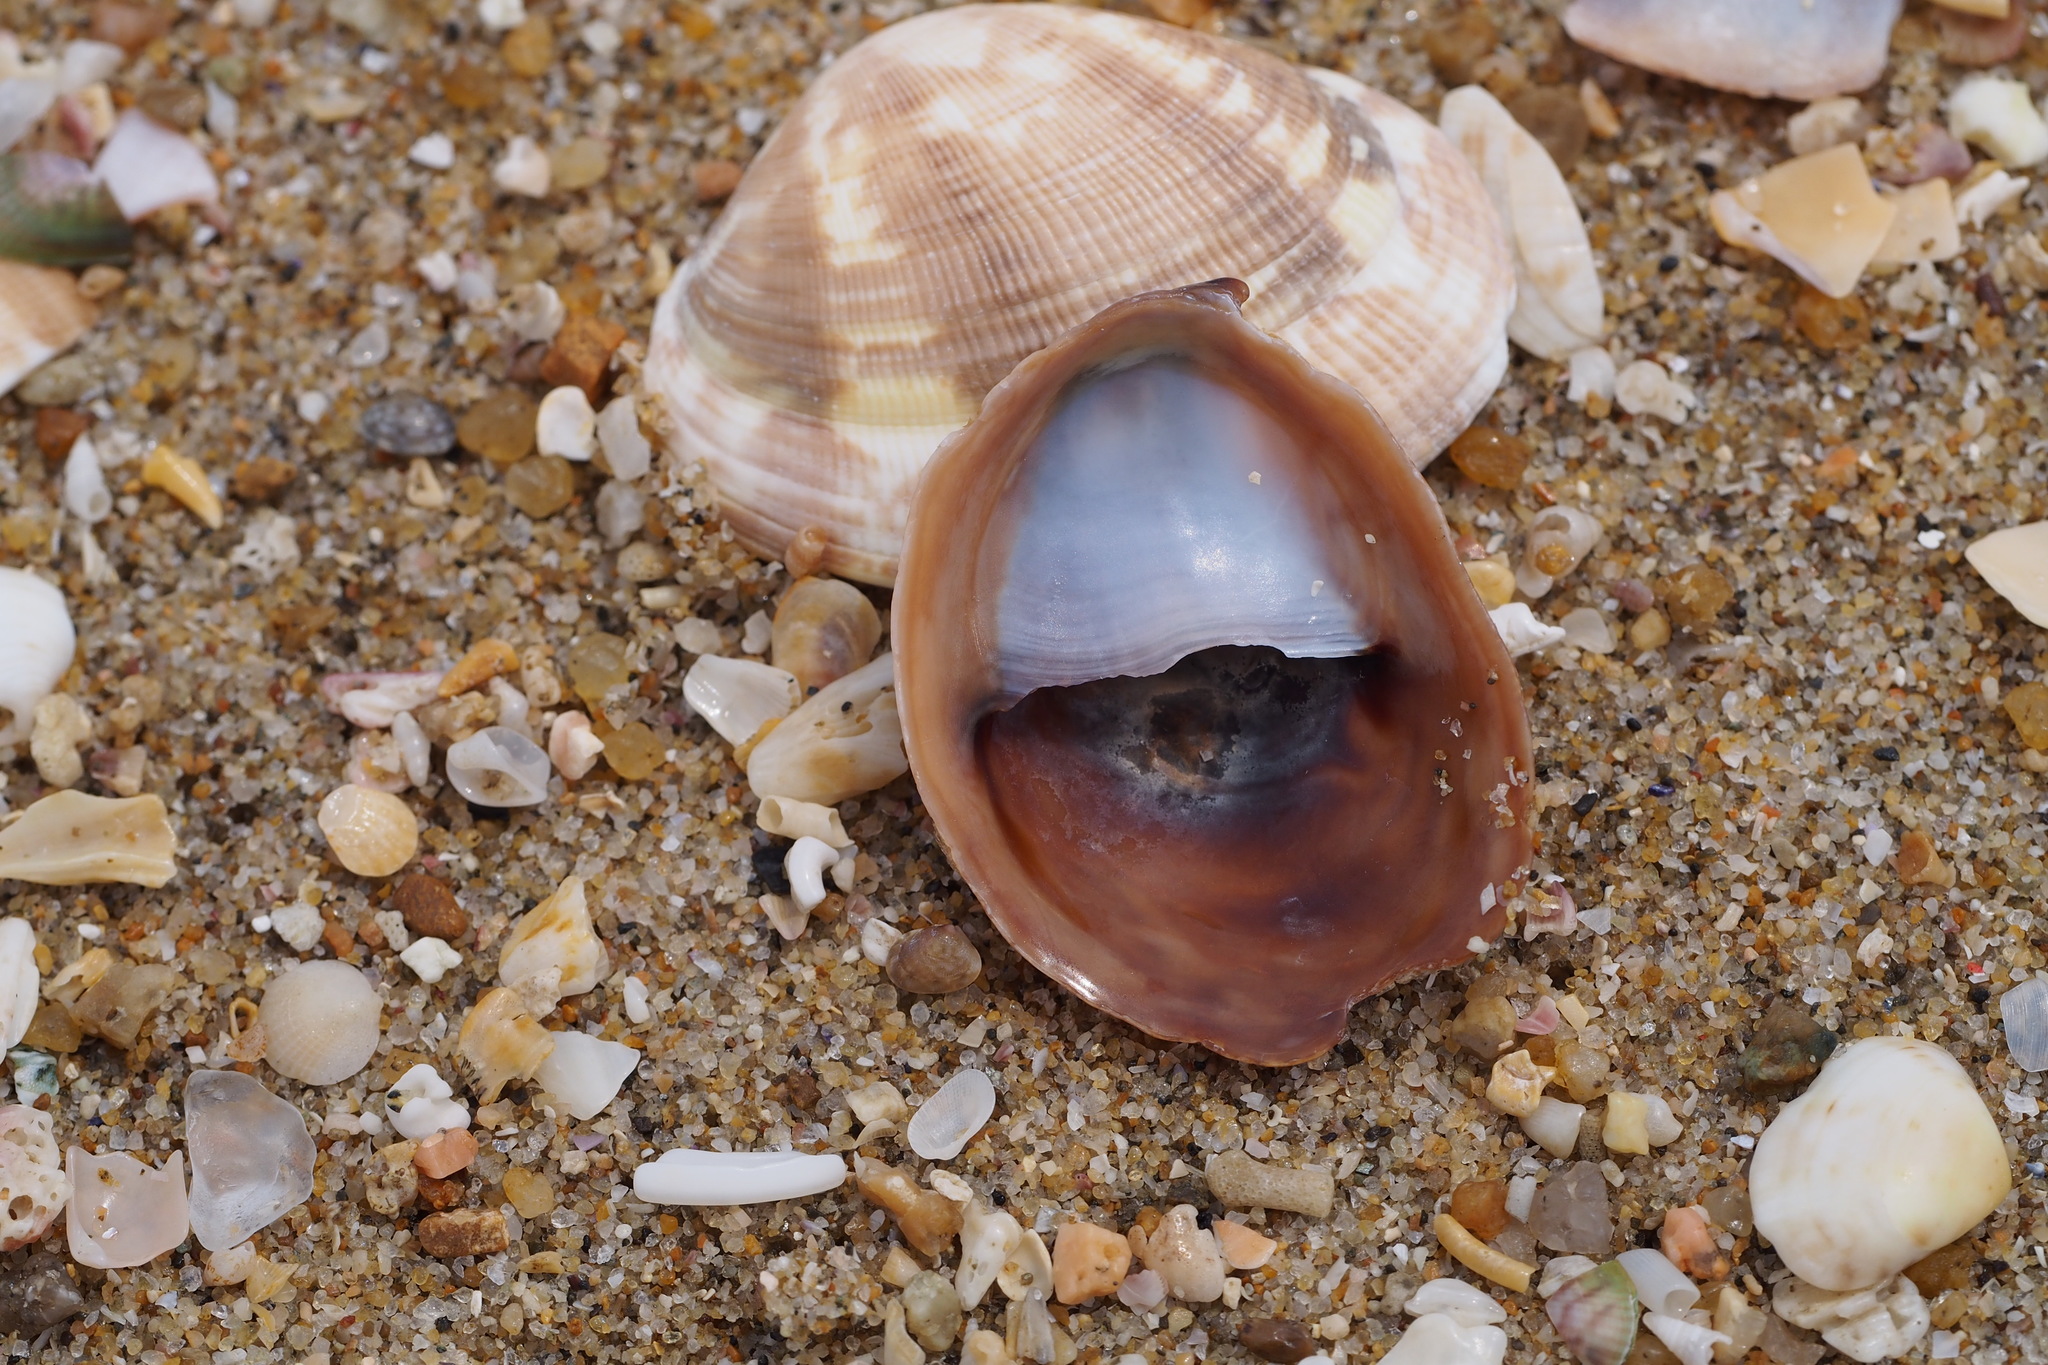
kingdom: Animalia
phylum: Mollusca
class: Gastropoda
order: Littorinimorpha
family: Calyptraeidae
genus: Crepidula
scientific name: Crepidula onyx
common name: Onyx slippersnail
